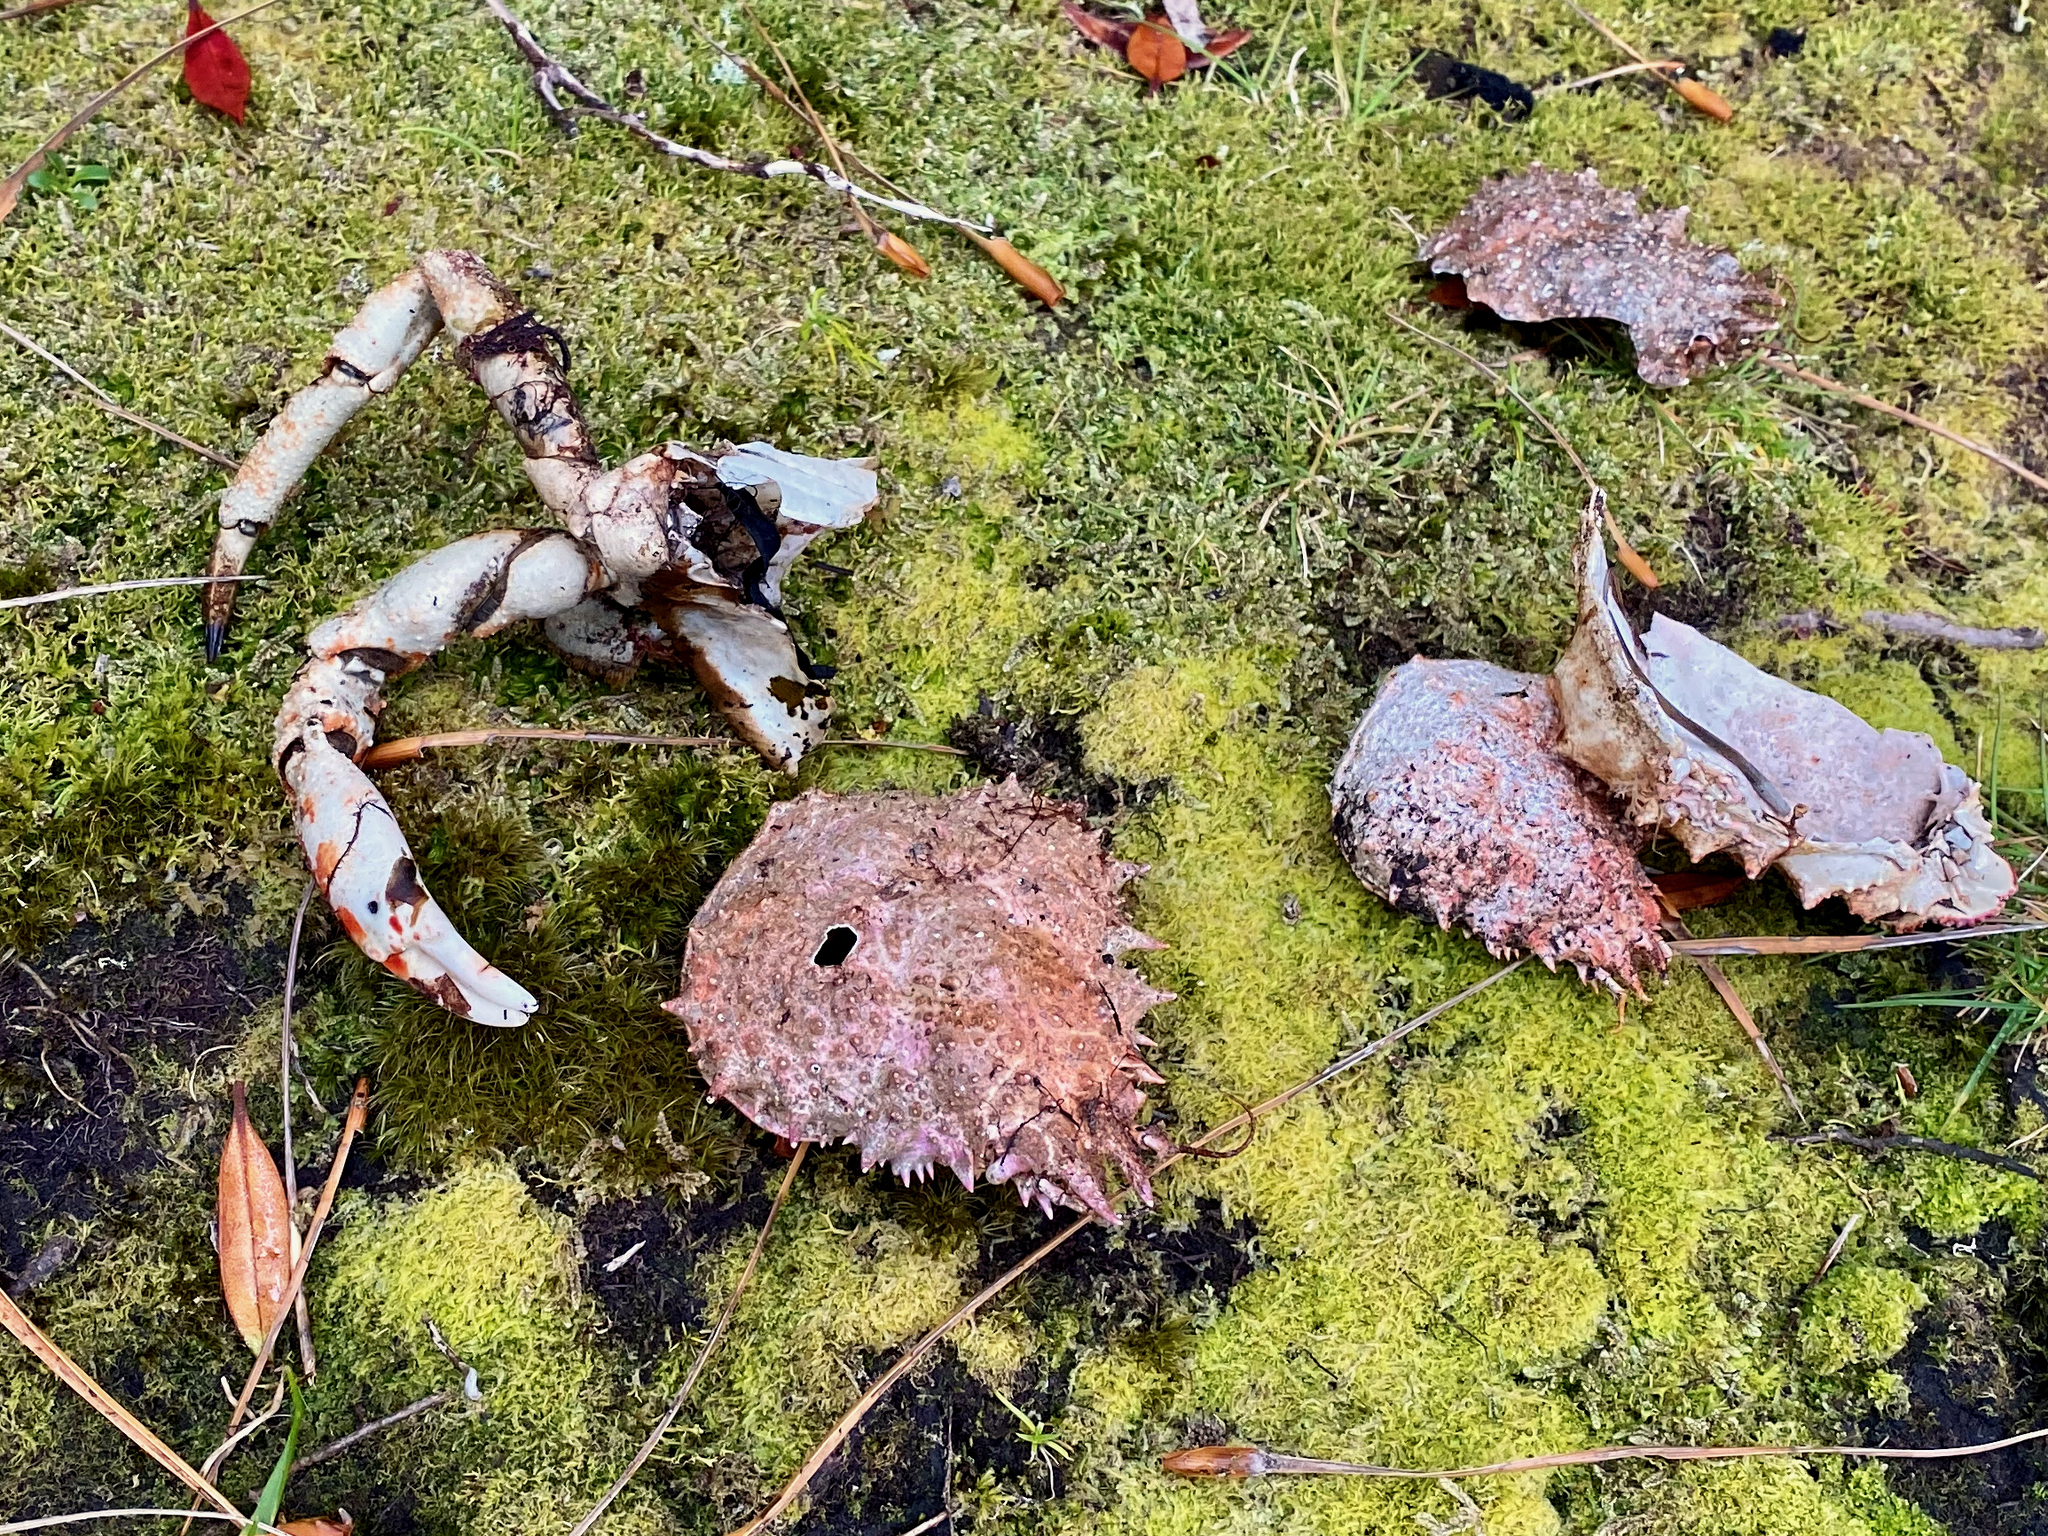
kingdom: Animalia
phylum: Arthropoda
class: Malacostraca
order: Decapoda
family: Majidae
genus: Leptomithrax
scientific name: Leptomithrax australis
